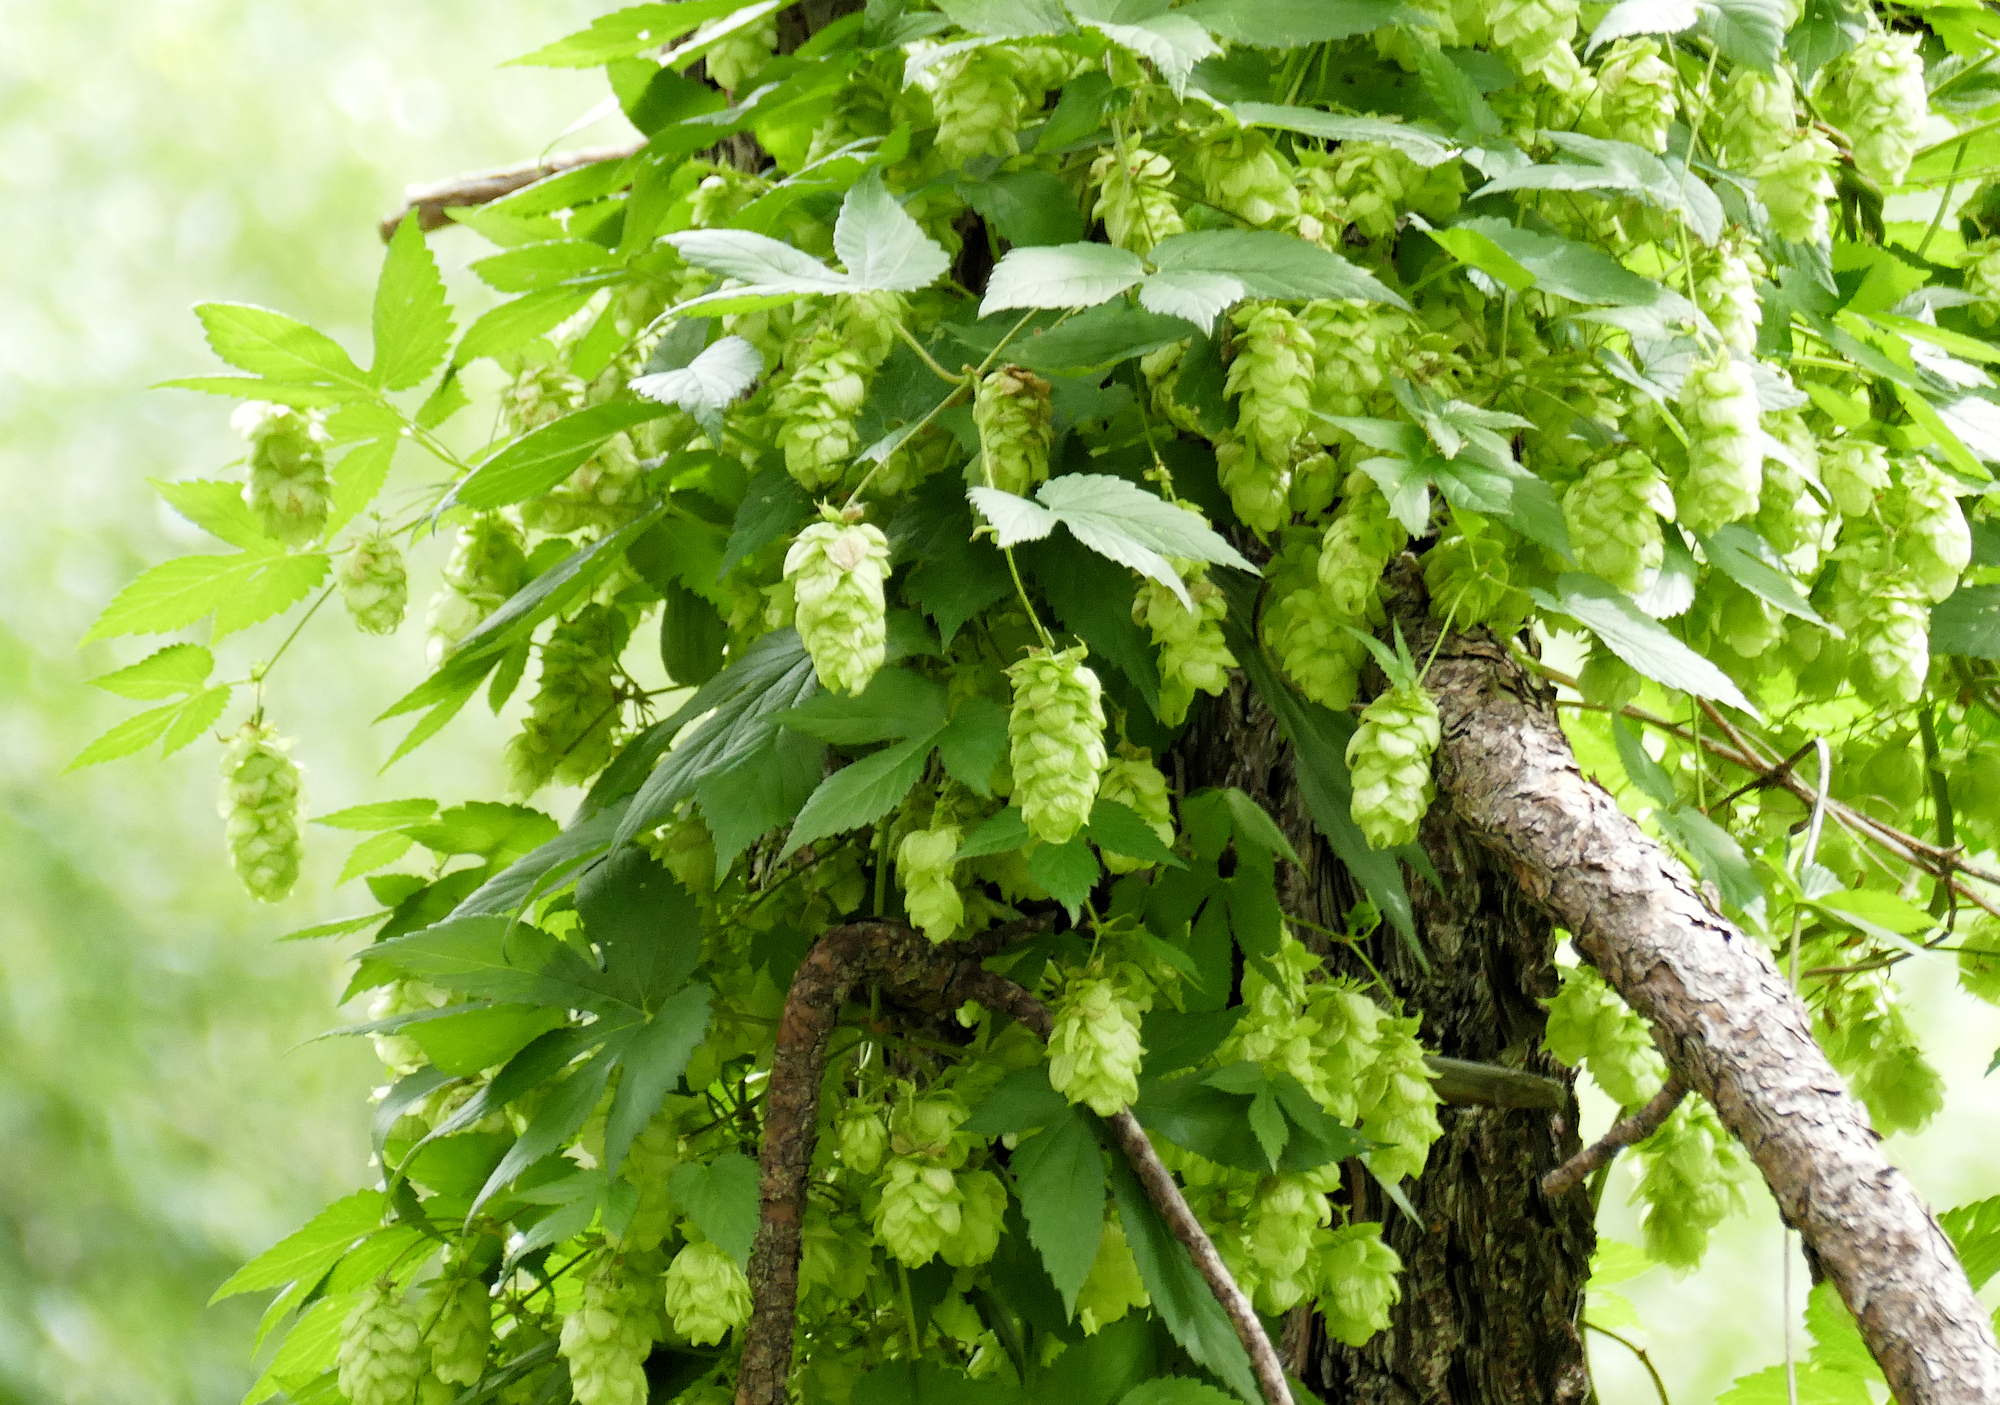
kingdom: Plantae
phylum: Tracheophyta
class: Magnoliopsida
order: Rosales
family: Cannabaceae
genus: Humulus
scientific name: Humulus lupulus
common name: Hop
